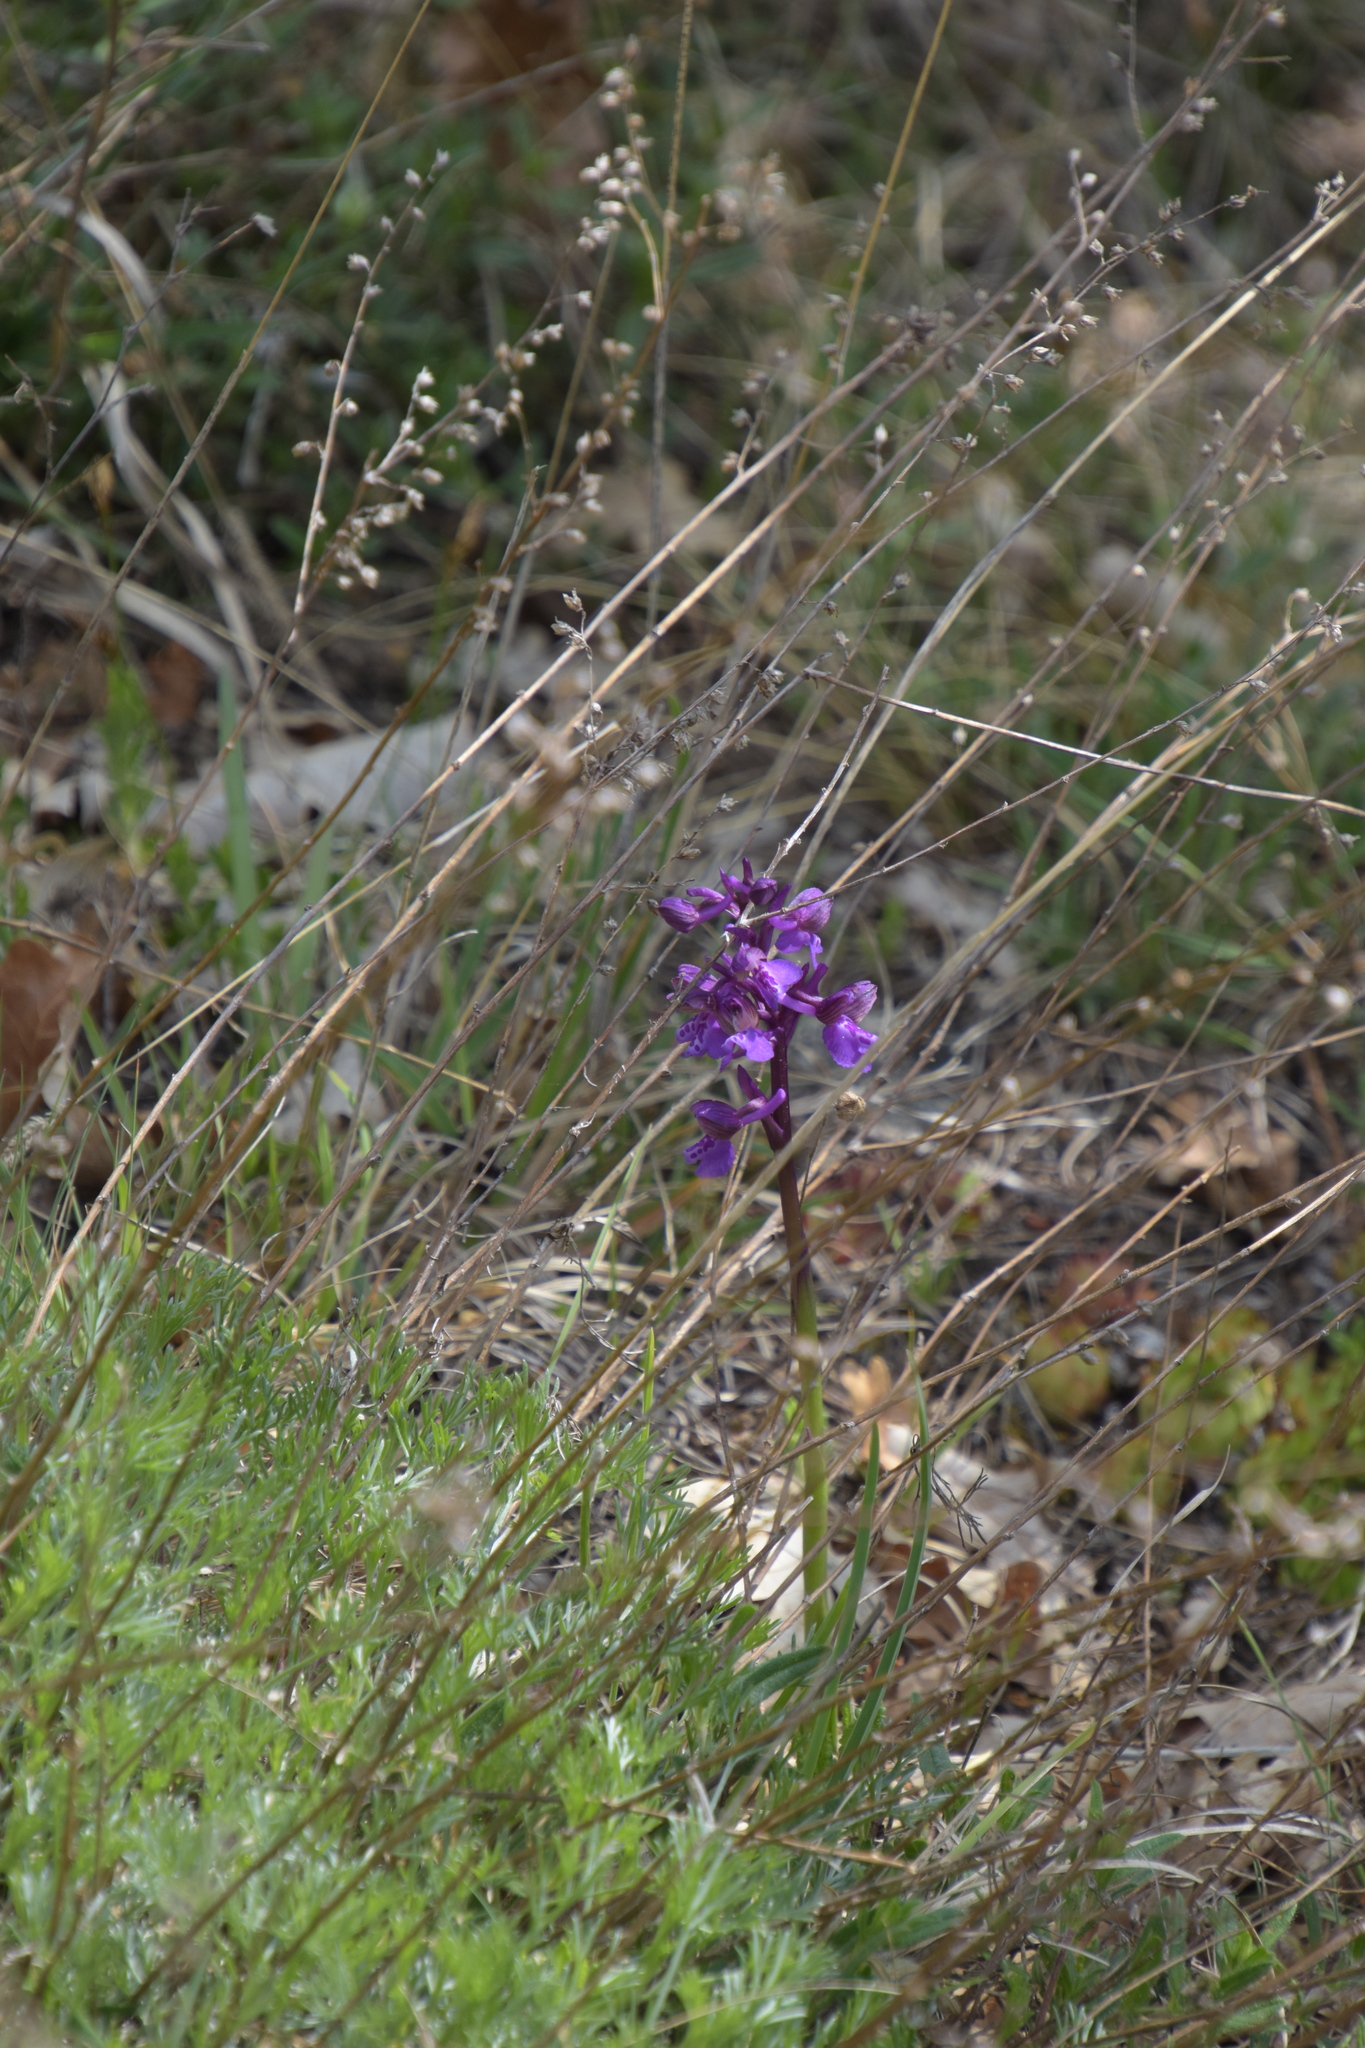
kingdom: Plantae
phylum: Tracheophyta
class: Liliopsida
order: Asparagales
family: Orchidaceae
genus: Anacamptis
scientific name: Anacamptis morio
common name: Green-winged orchid
